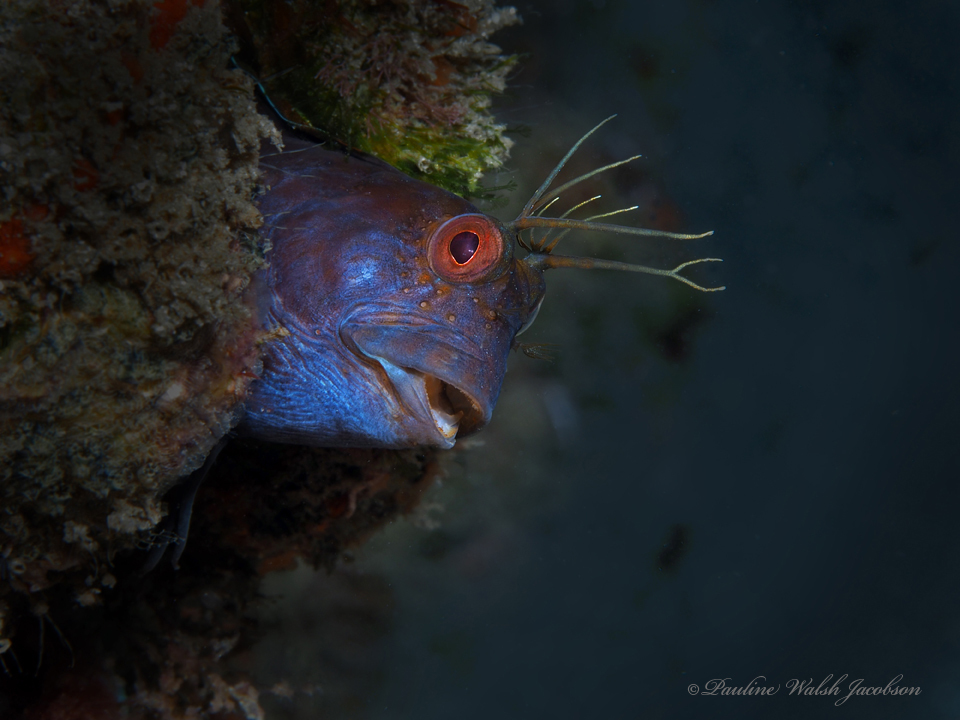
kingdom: Animalia
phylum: Chordata
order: Perciformes
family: Blenniidae
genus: Parablennius
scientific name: Parablennius marmoreus
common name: Seaweed blenny
